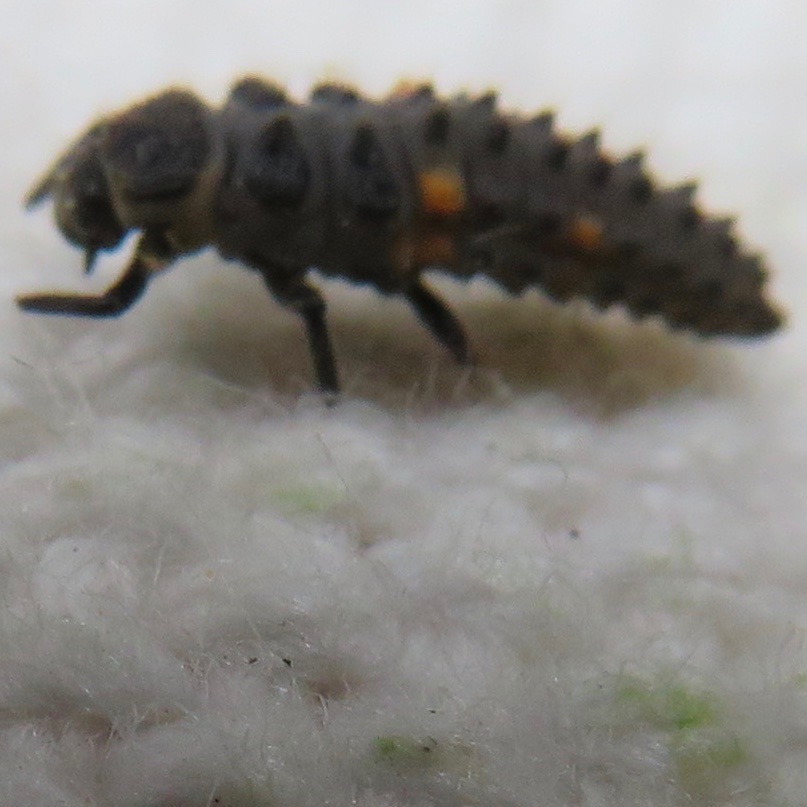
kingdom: Animalia
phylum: Arthropoda
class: Insecta
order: Coleoptera
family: Coccinellidae
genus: Coccinella
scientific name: Coccinella septempunctata
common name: Sevenspotted lady beetle
